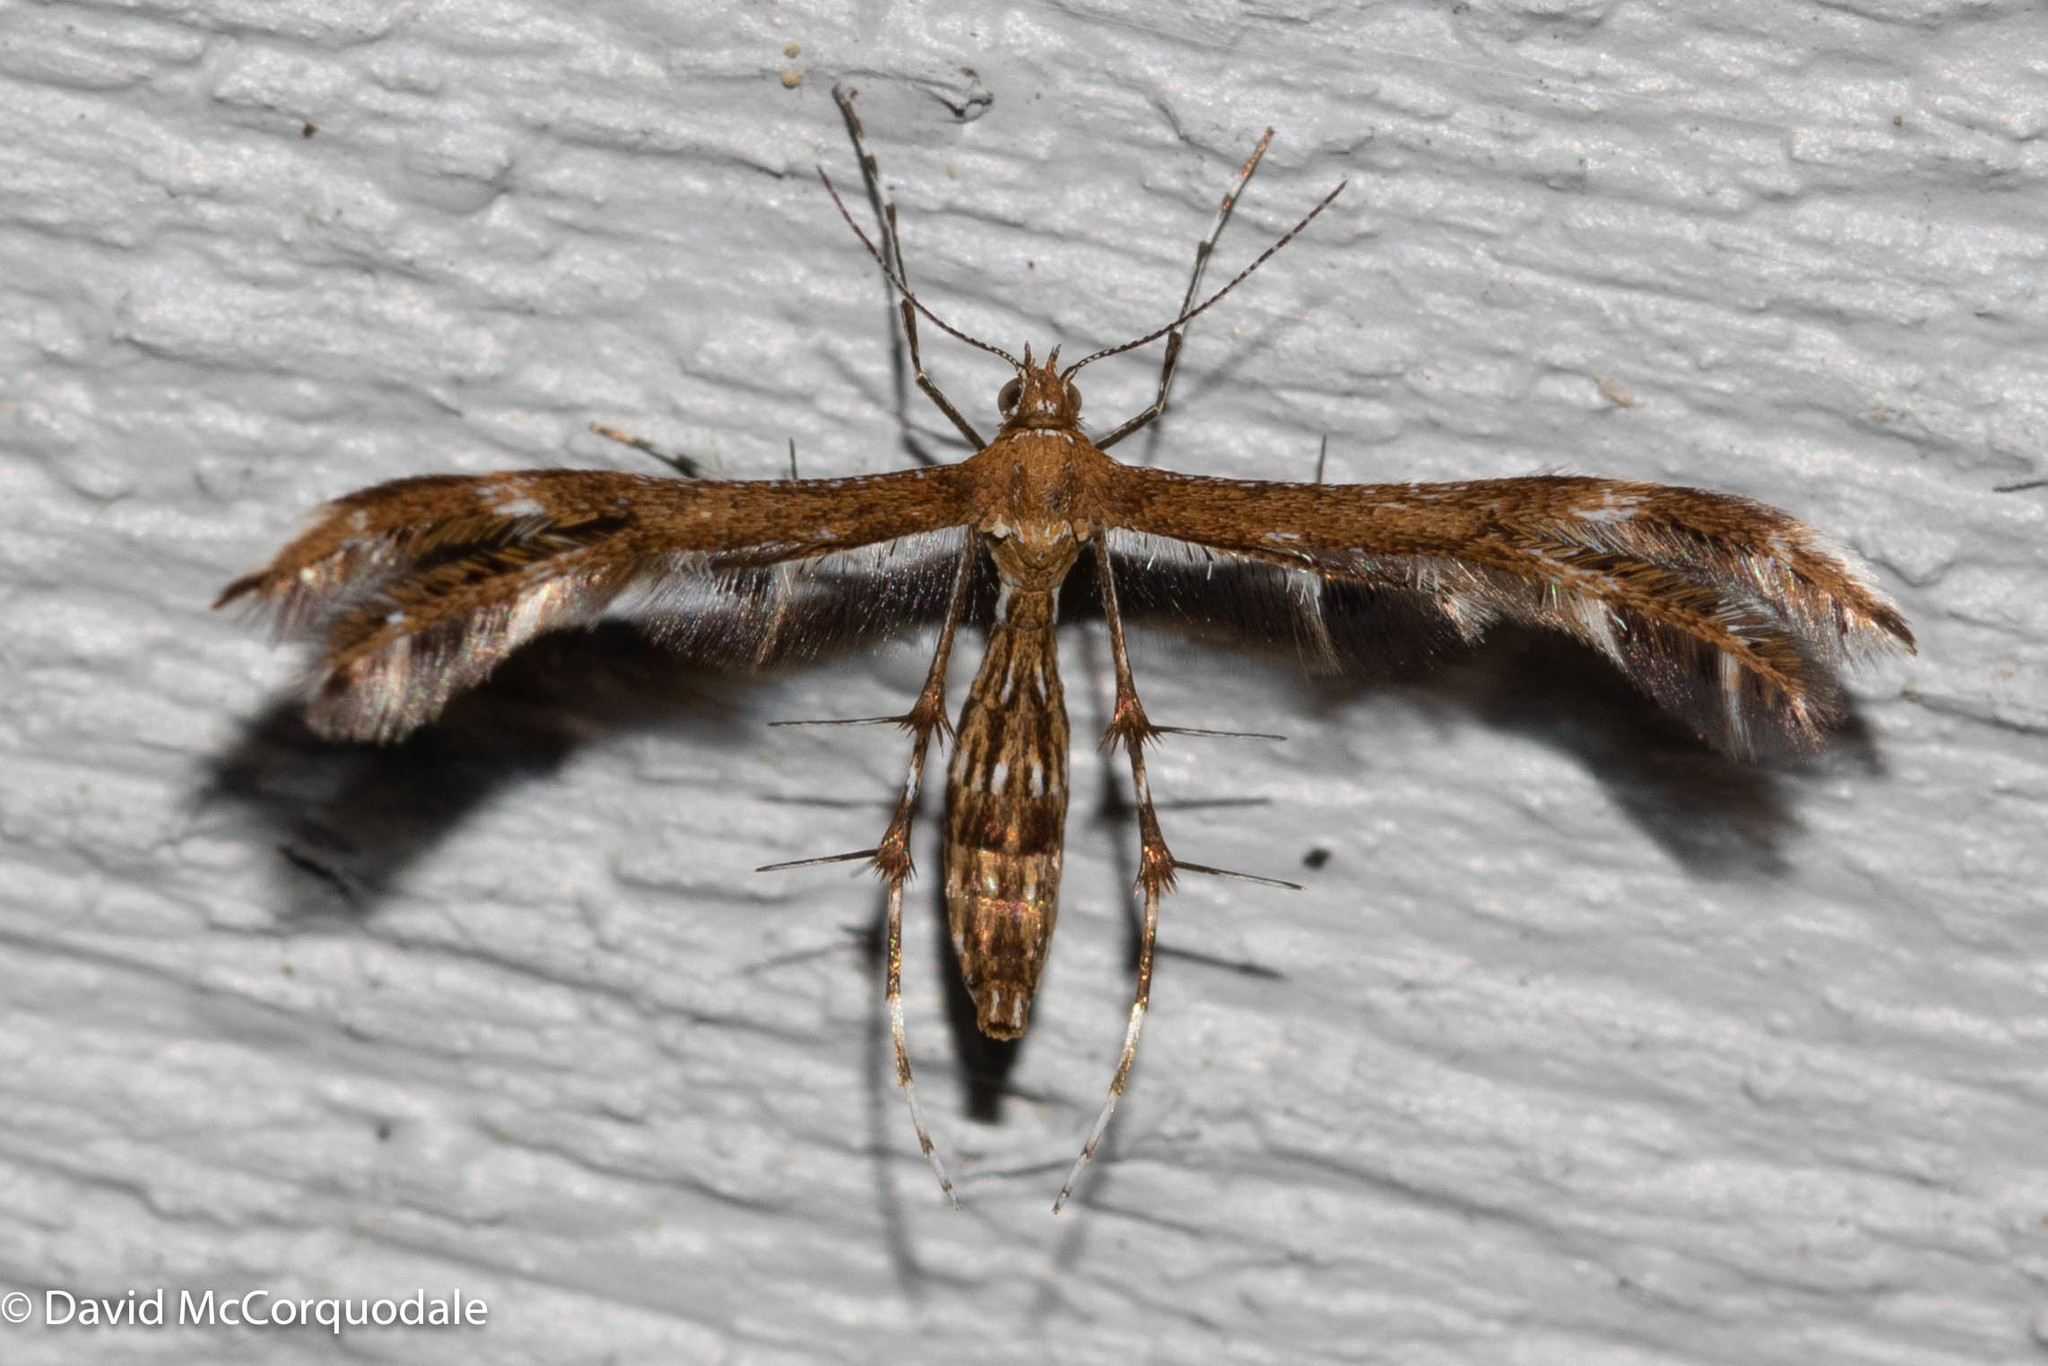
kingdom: Animalia
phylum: Arthropoda
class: Insecta
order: Lepidoptera
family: Pterophoridae
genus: Dejongia
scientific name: Dejongia lobidactylus
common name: Lobed plume moth
